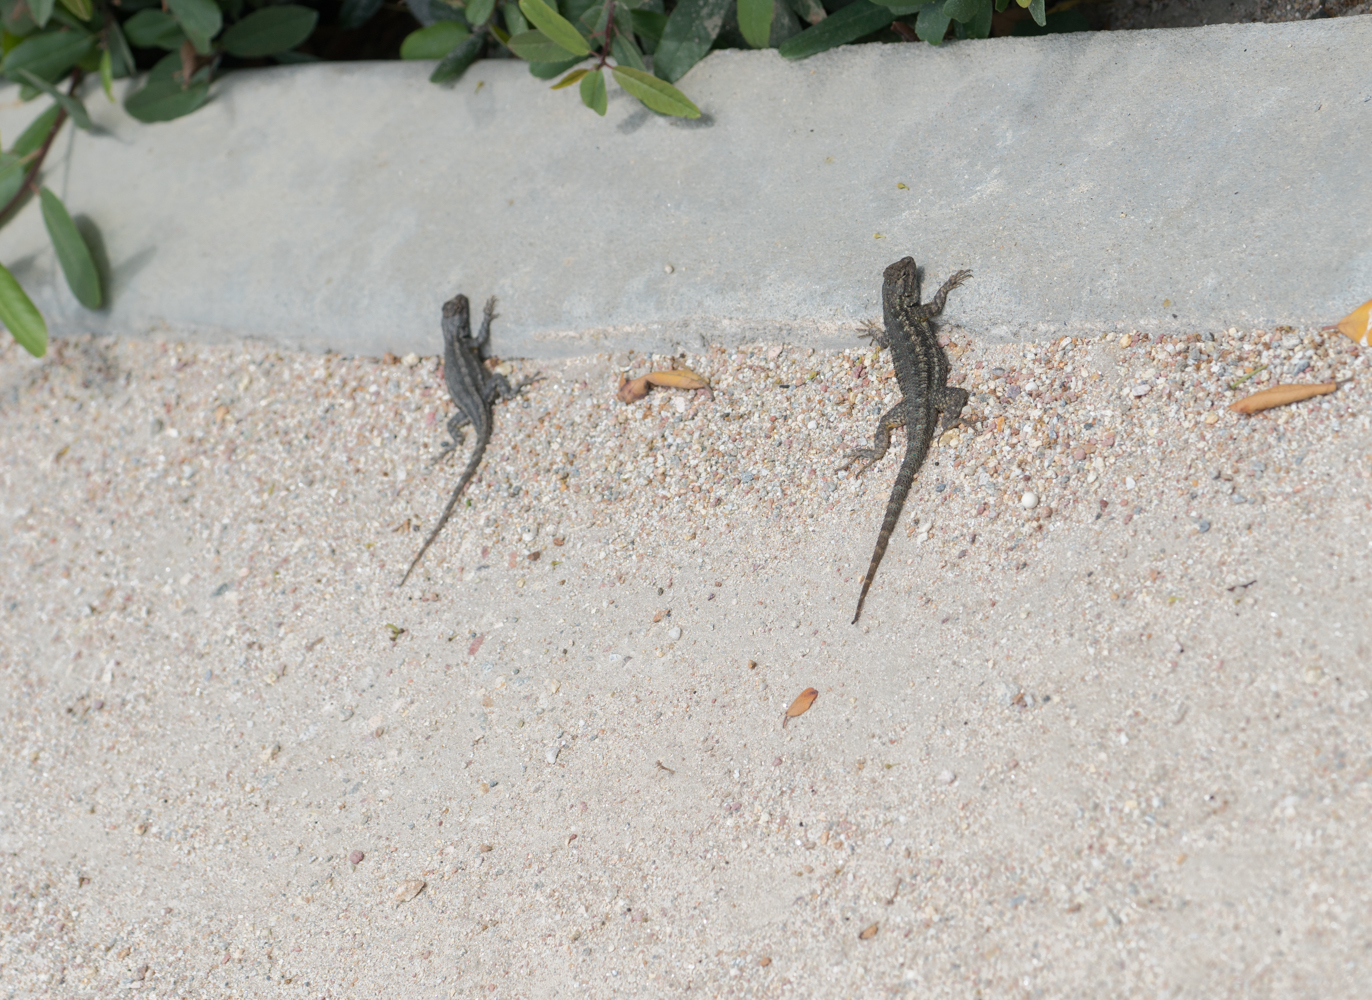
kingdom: Animalia
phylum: Chordata
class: Squamata
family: Phrynosomatidae
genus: Sceloporus
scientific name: Sceloporus occidentalis
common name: Western fence lizard
